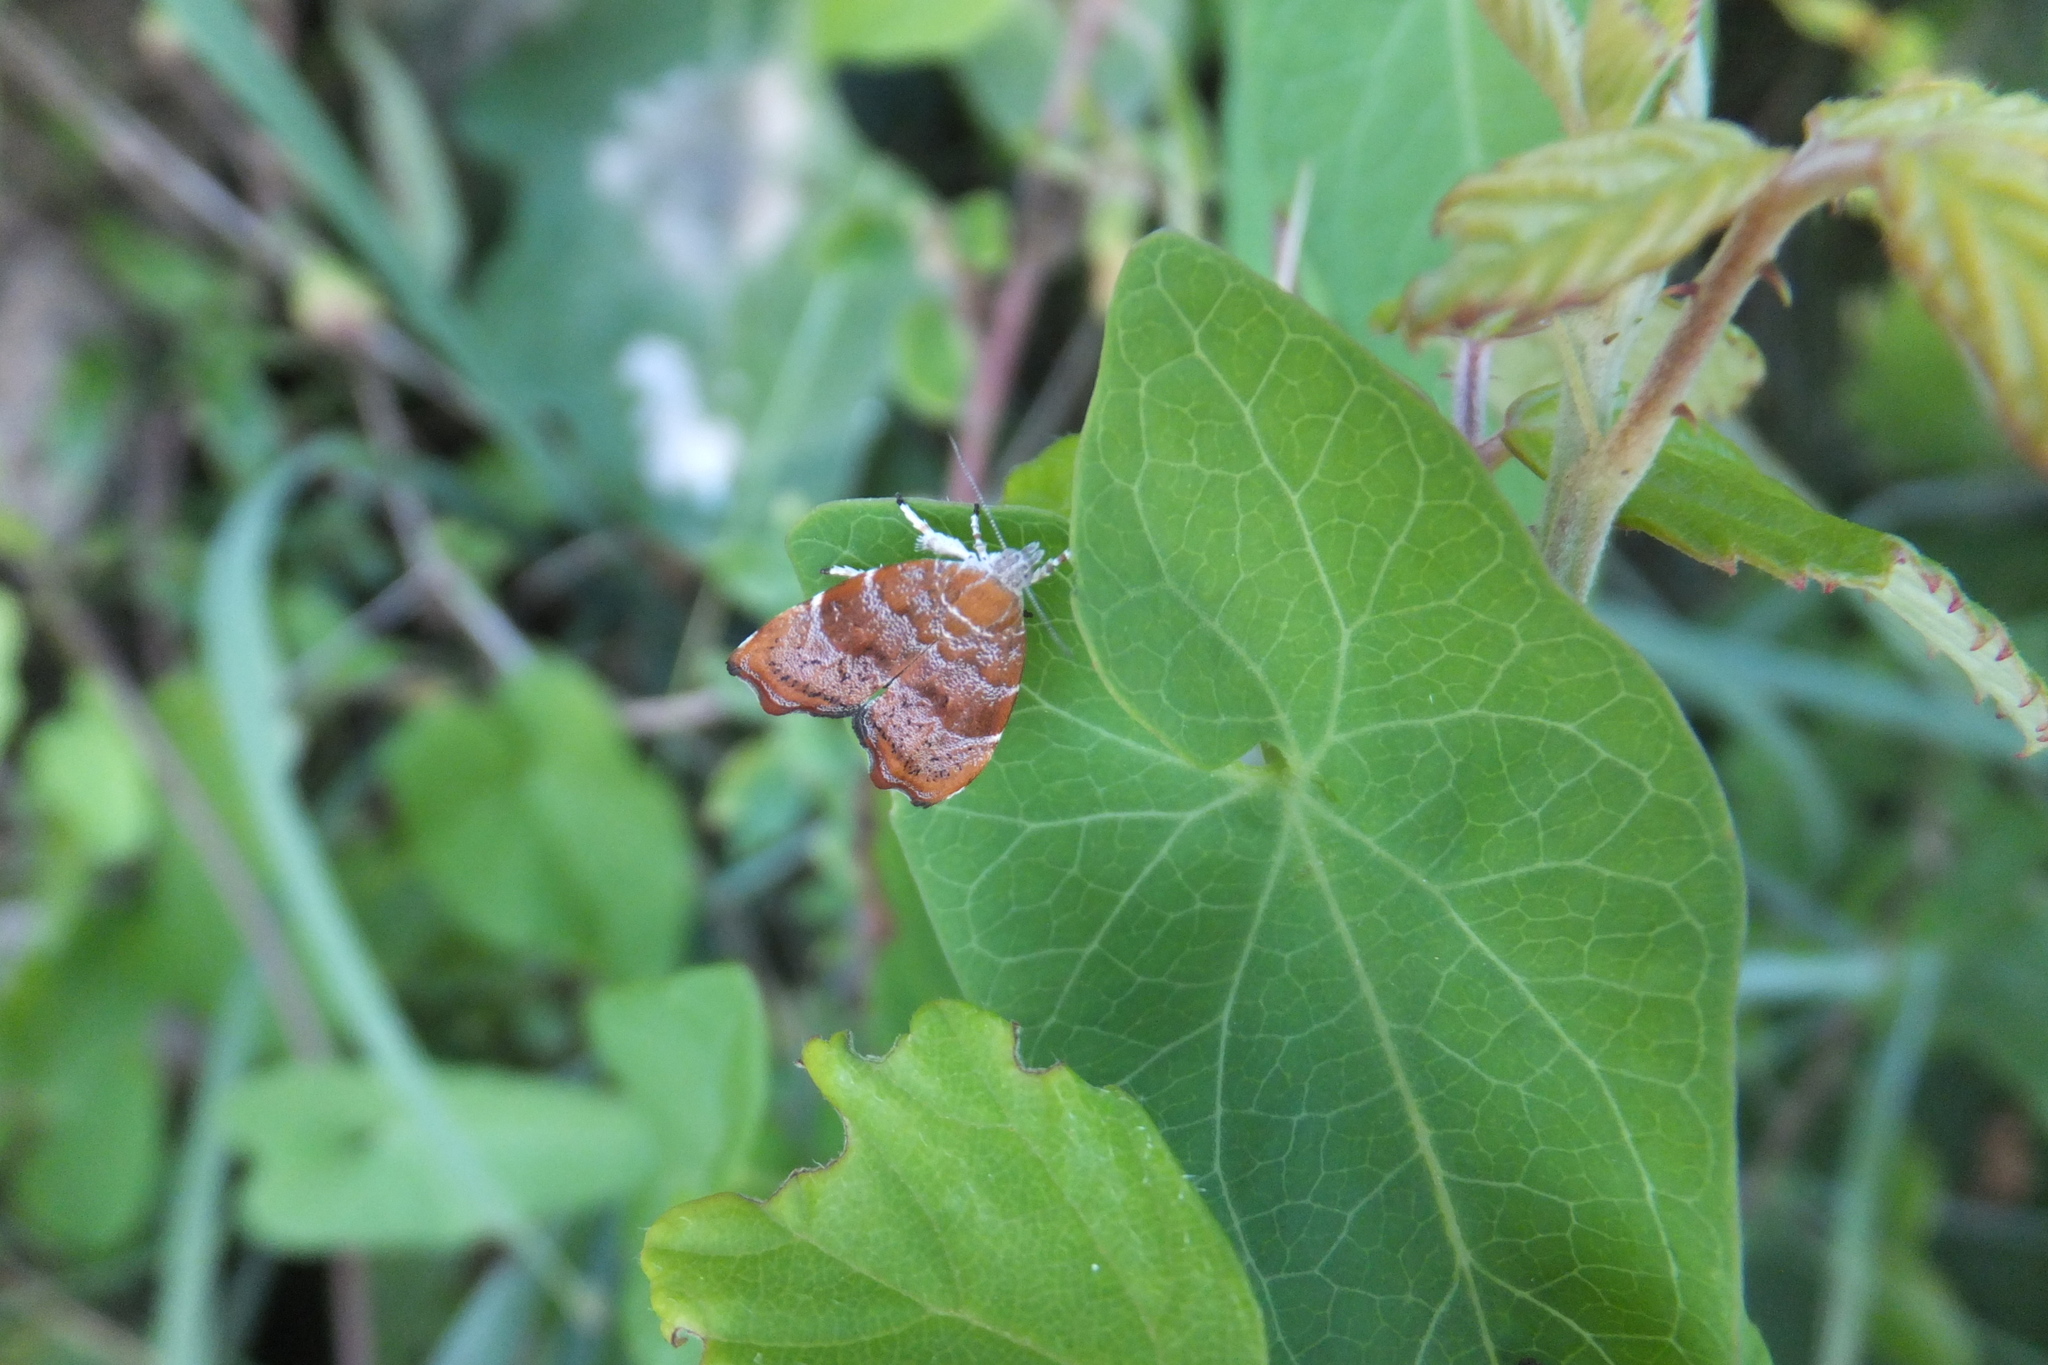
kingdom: Animalia
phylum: Arthropoda
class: Insecta
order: Lepidoptera
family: Choreutidae
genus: Anthophila
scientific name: Anthophila nemorana
